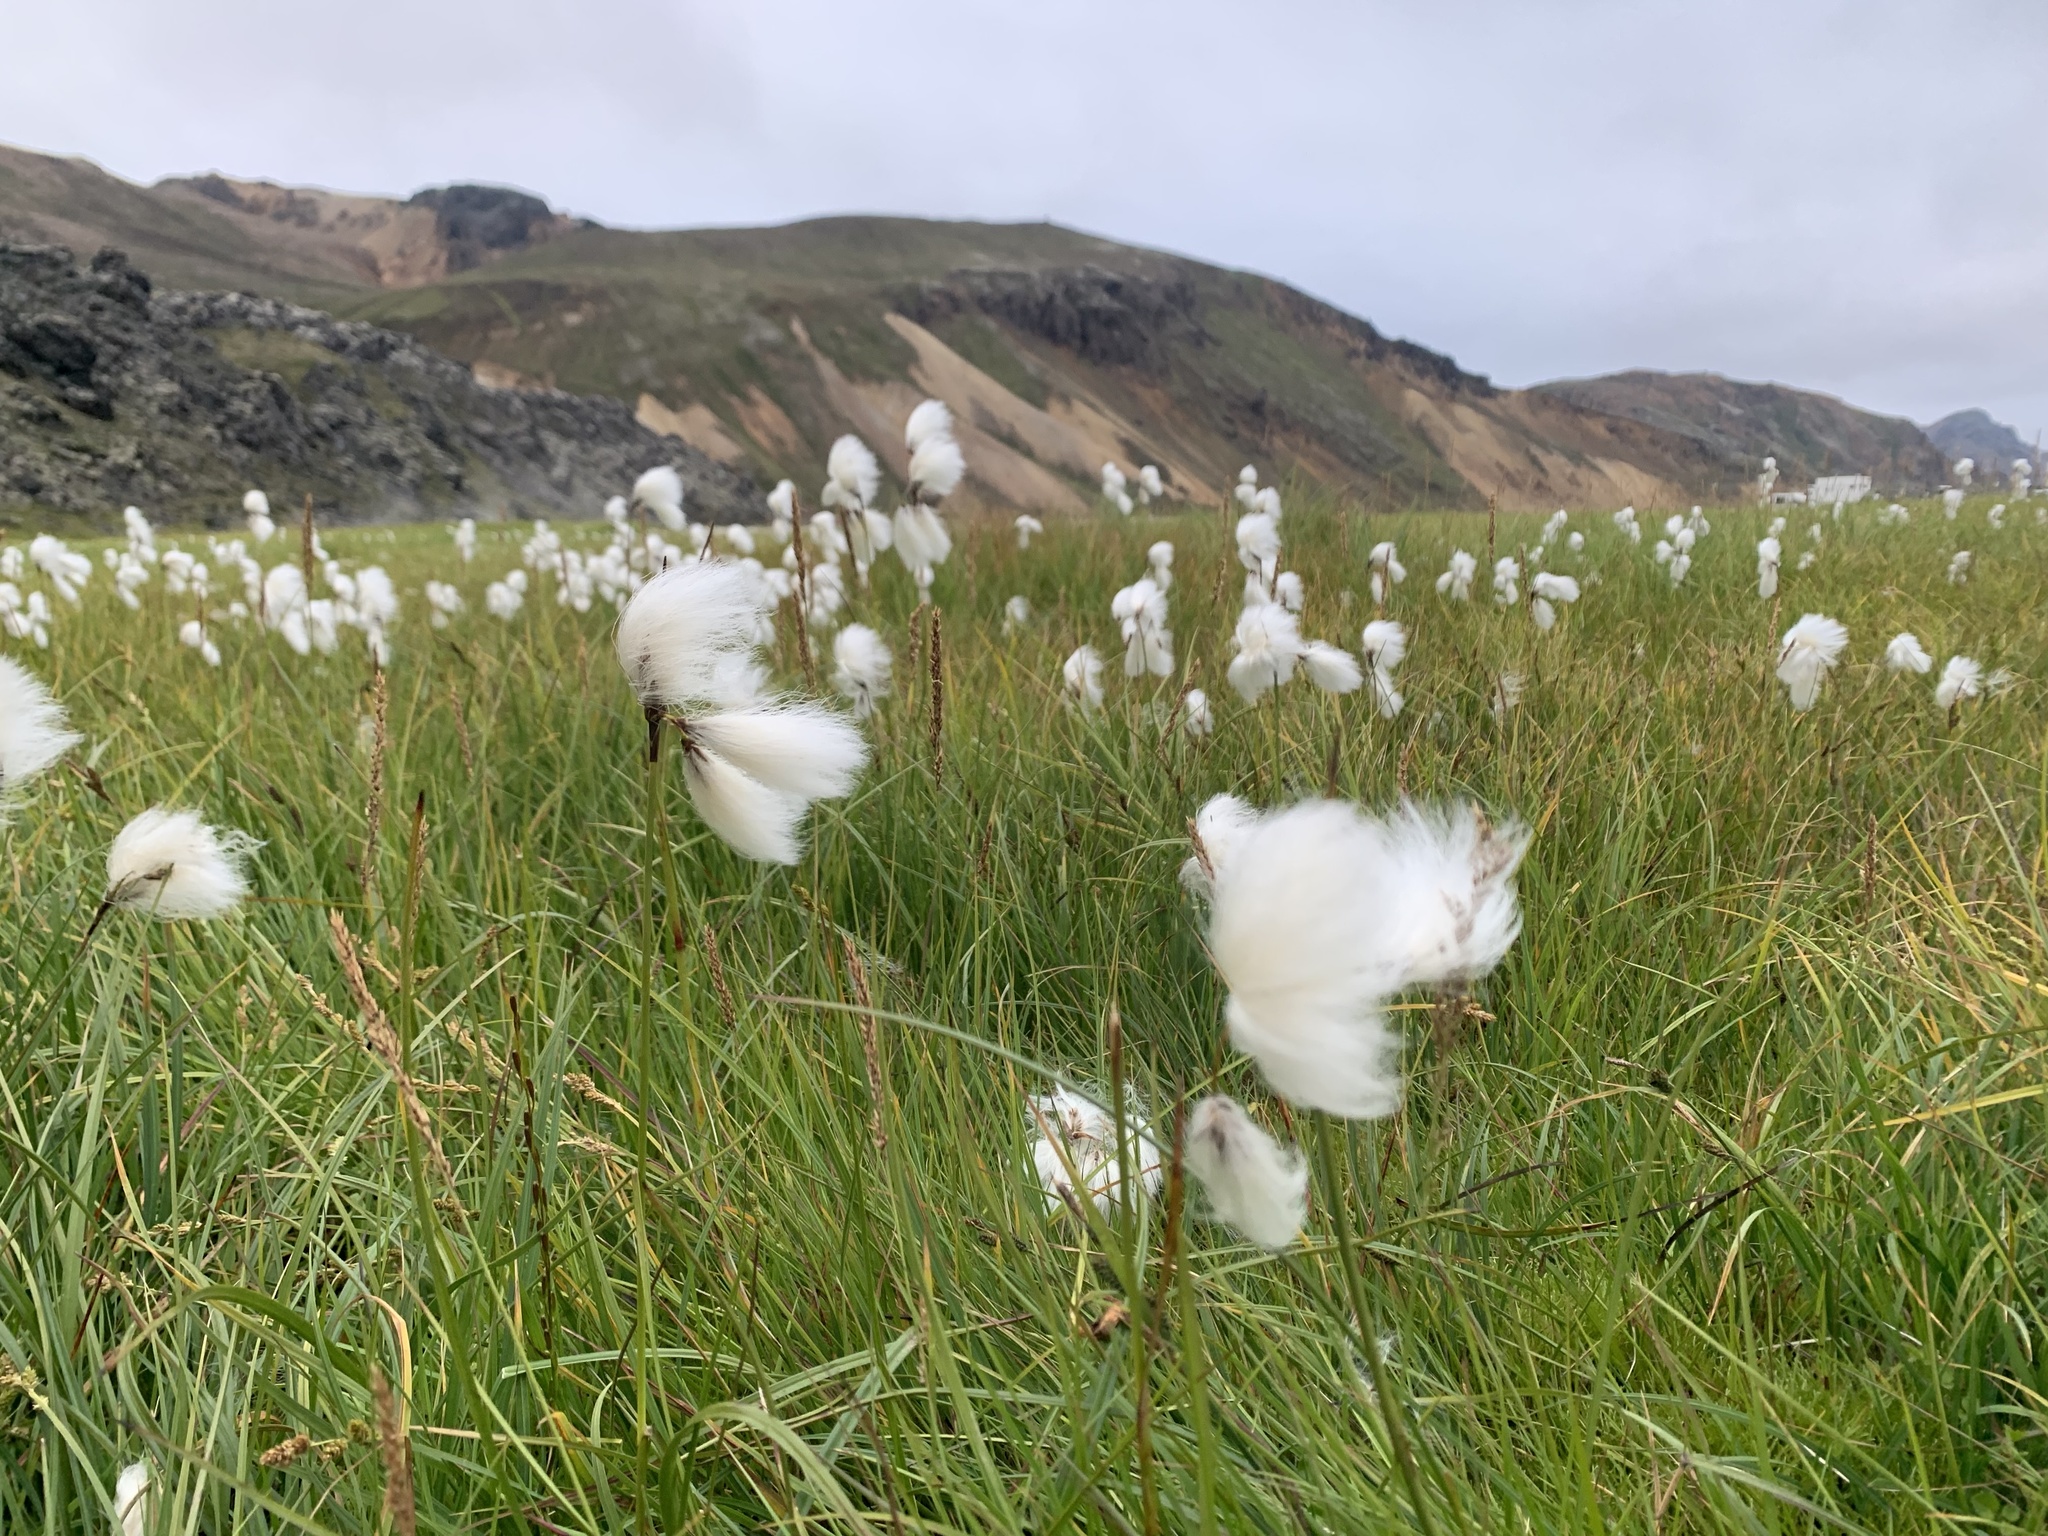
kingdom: Plantae
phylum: Tracheophyta
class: Liliopsida
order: Poales
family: Cyperaceae
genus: Eriophorum
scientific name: Eriophorum angustifolium
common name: Common cottongrass
